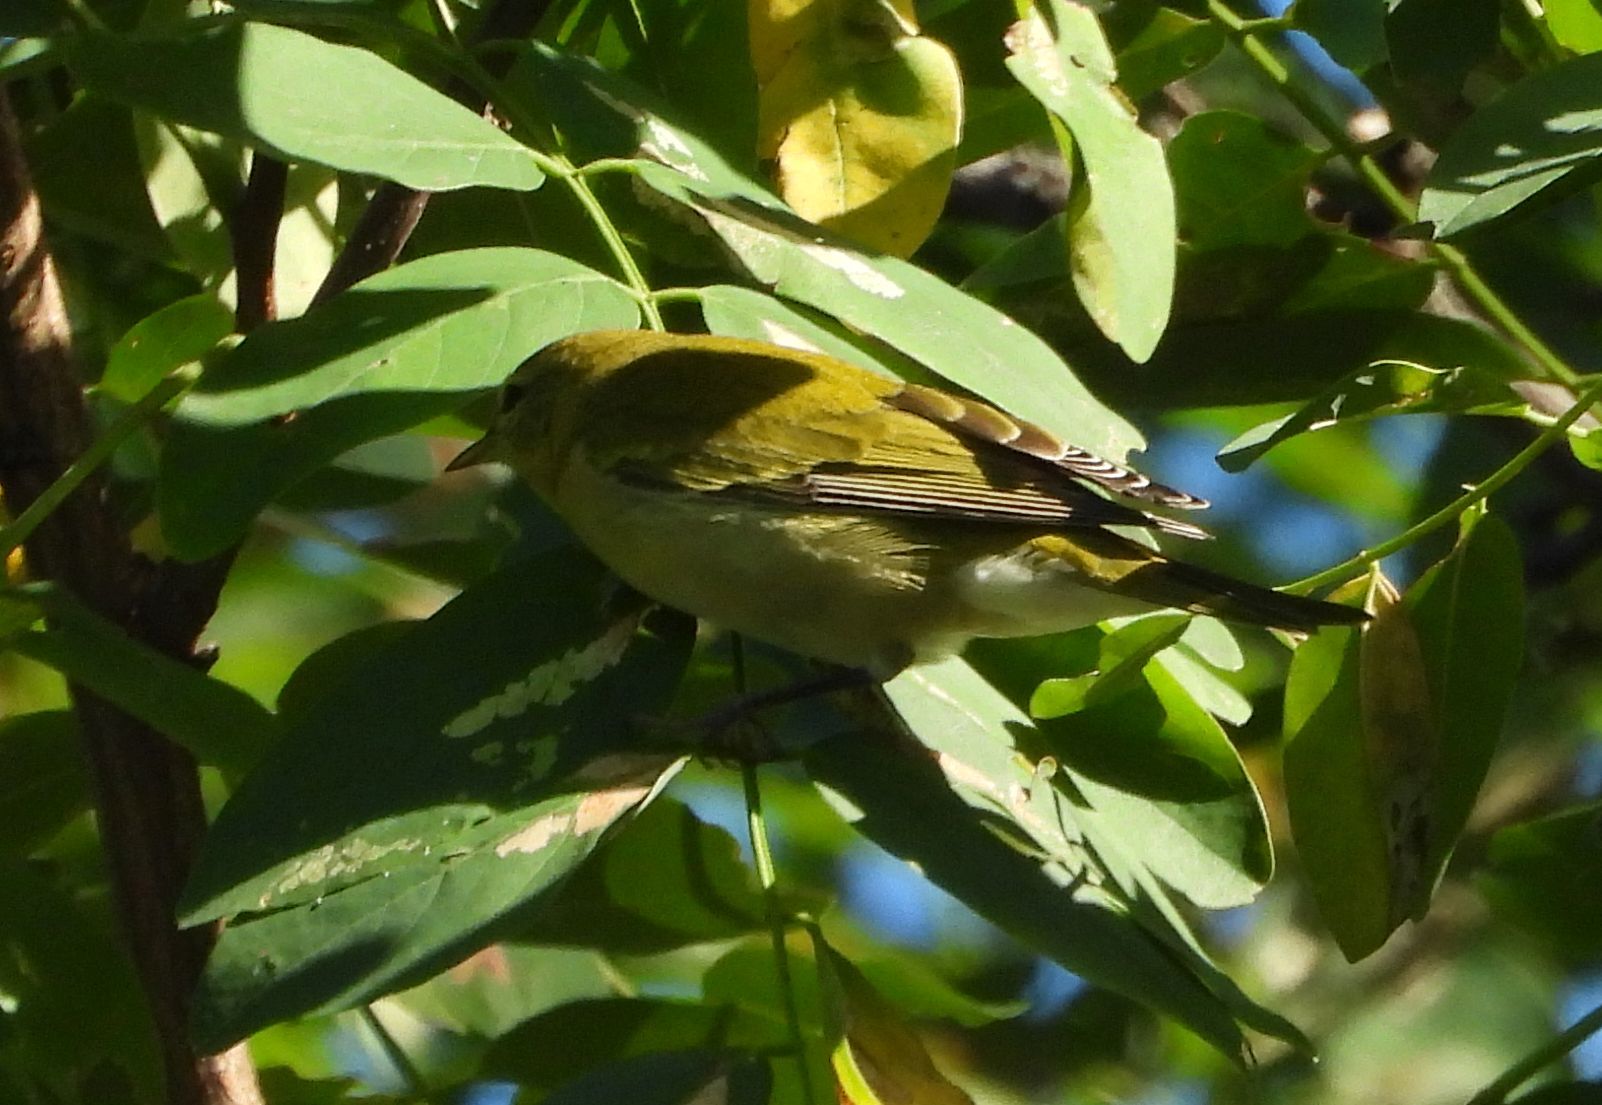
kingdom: Animalia
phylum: Chordata
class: Aves
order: Passeriformes
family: Parulidae
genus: Leiothlypis
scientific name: Leiothlypis peregrina
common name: Tennessee warbler
